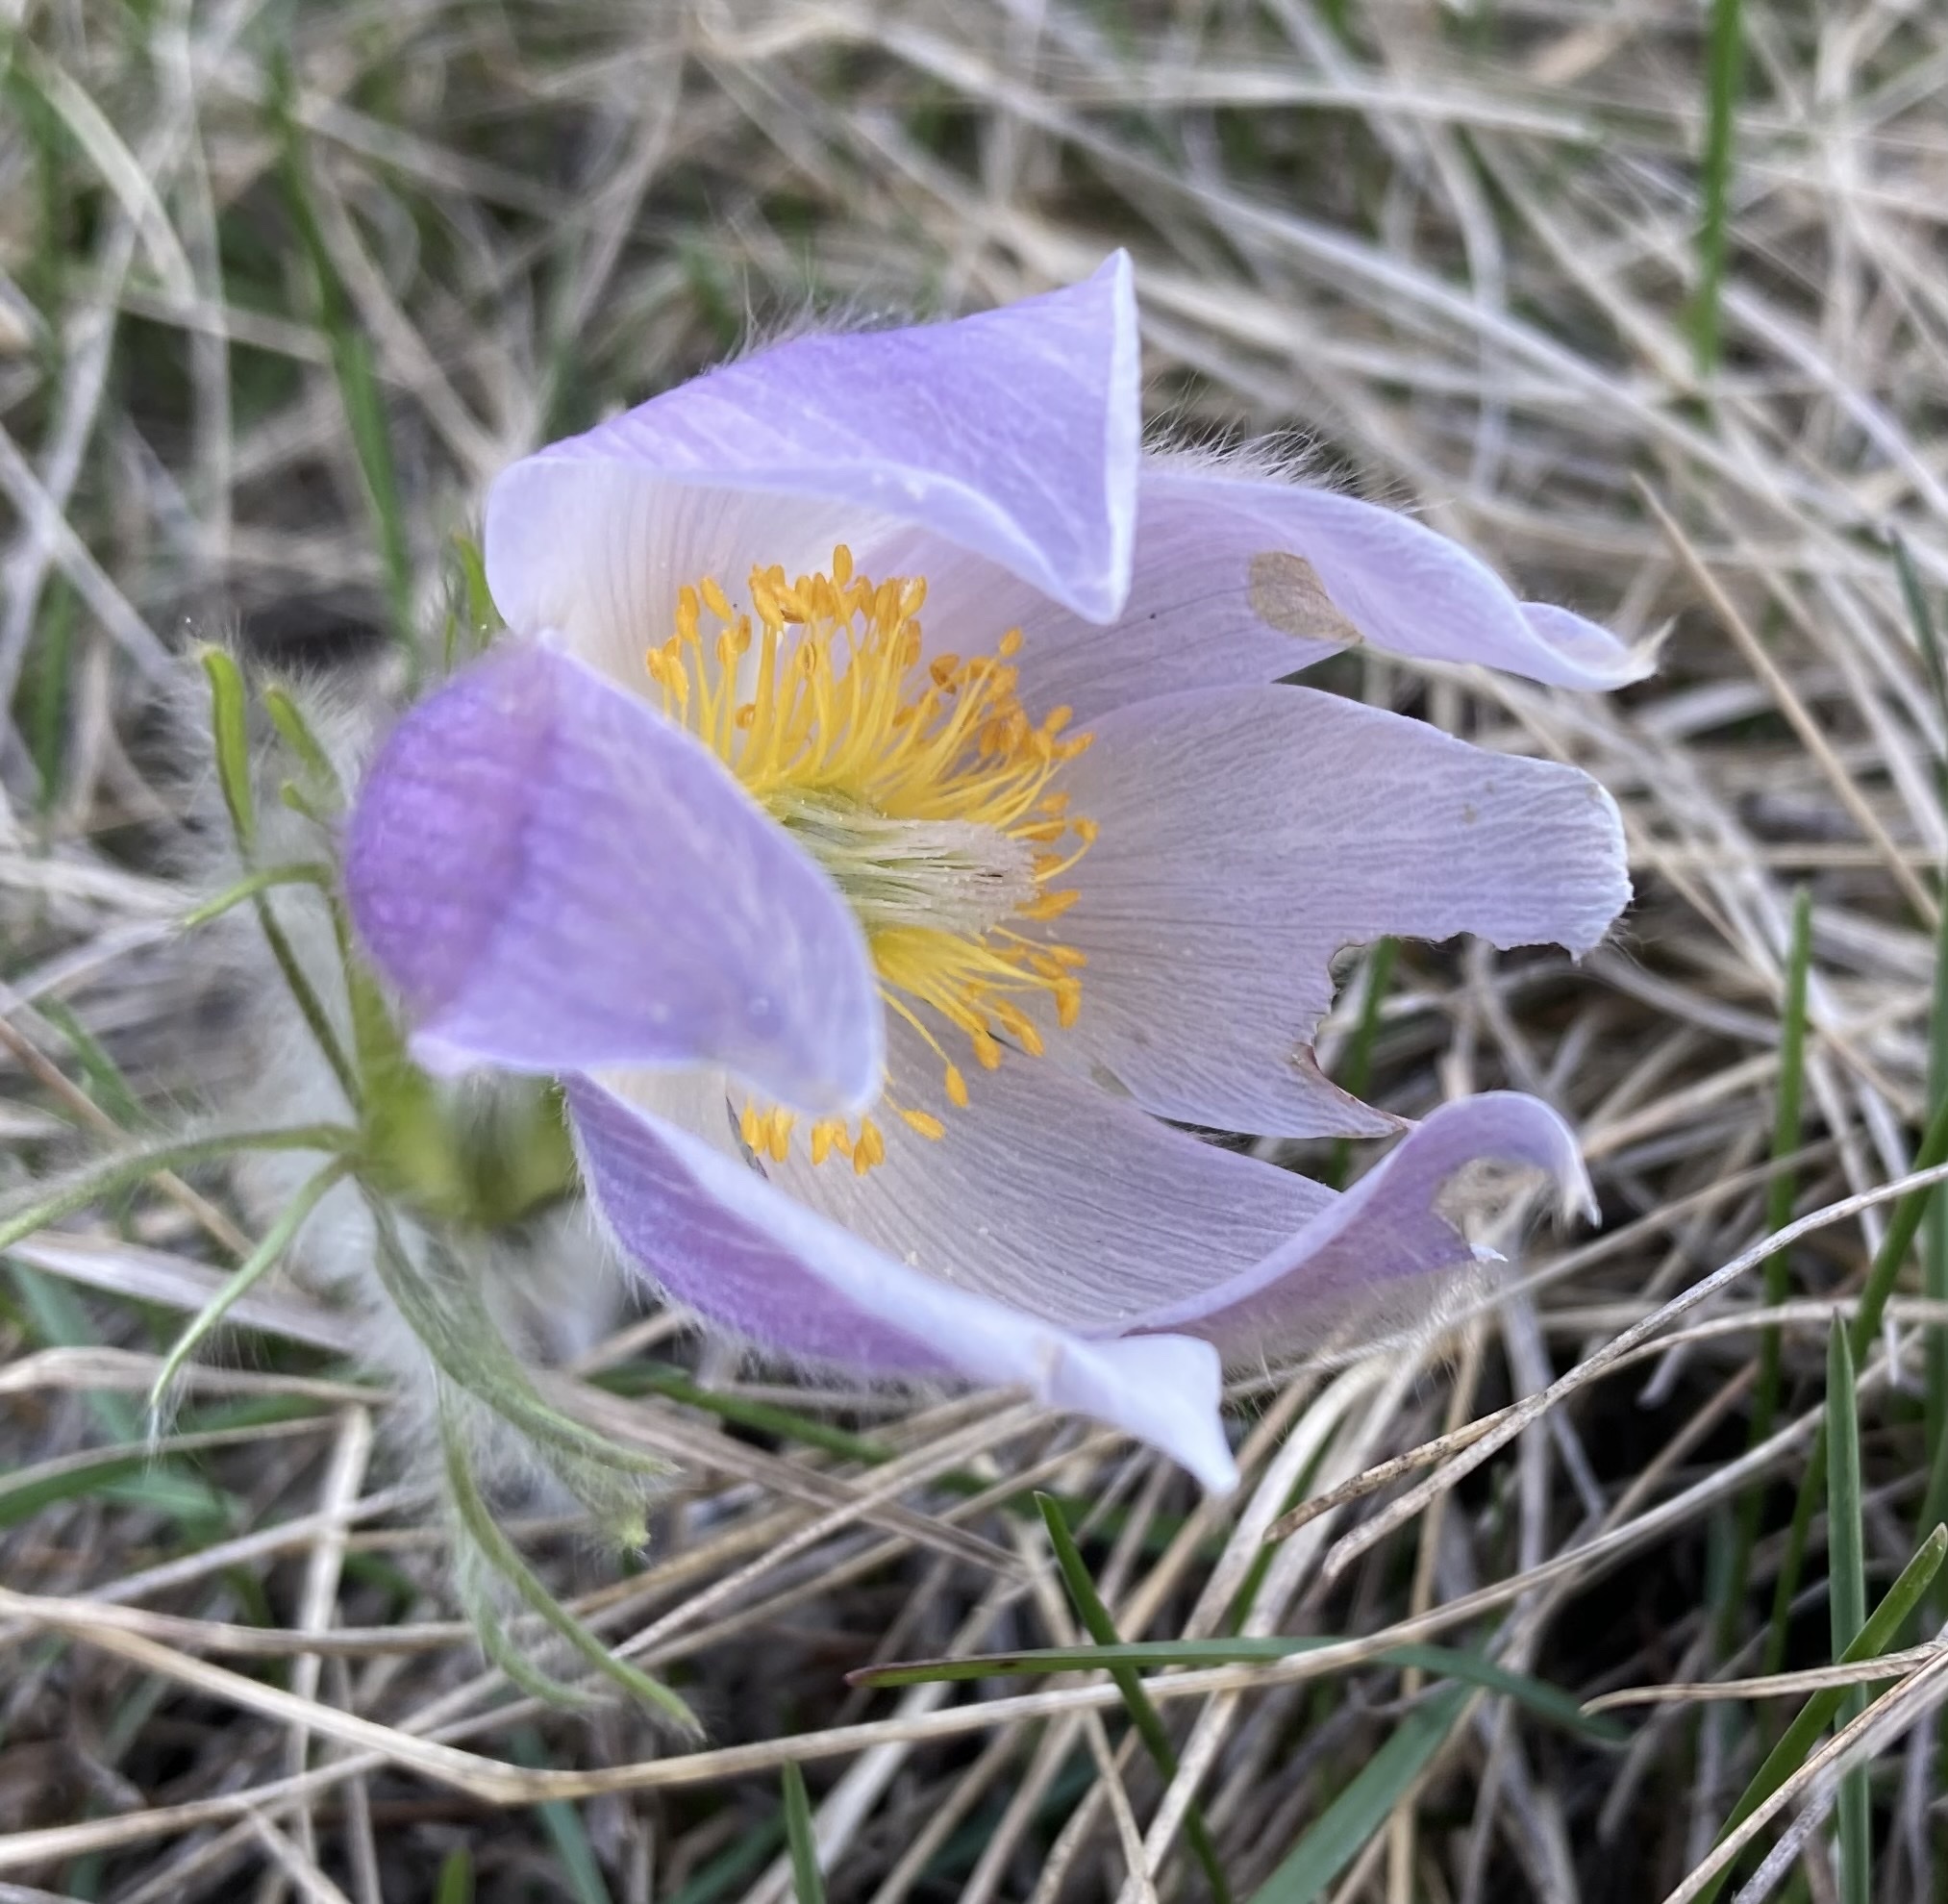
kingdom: Plantae
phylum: Tracheophyta
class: Magnoliopsida
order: Ranunculales
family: Ranunculaceae
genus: Pulsatilla
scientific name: Pulsatilla nuttalliana
